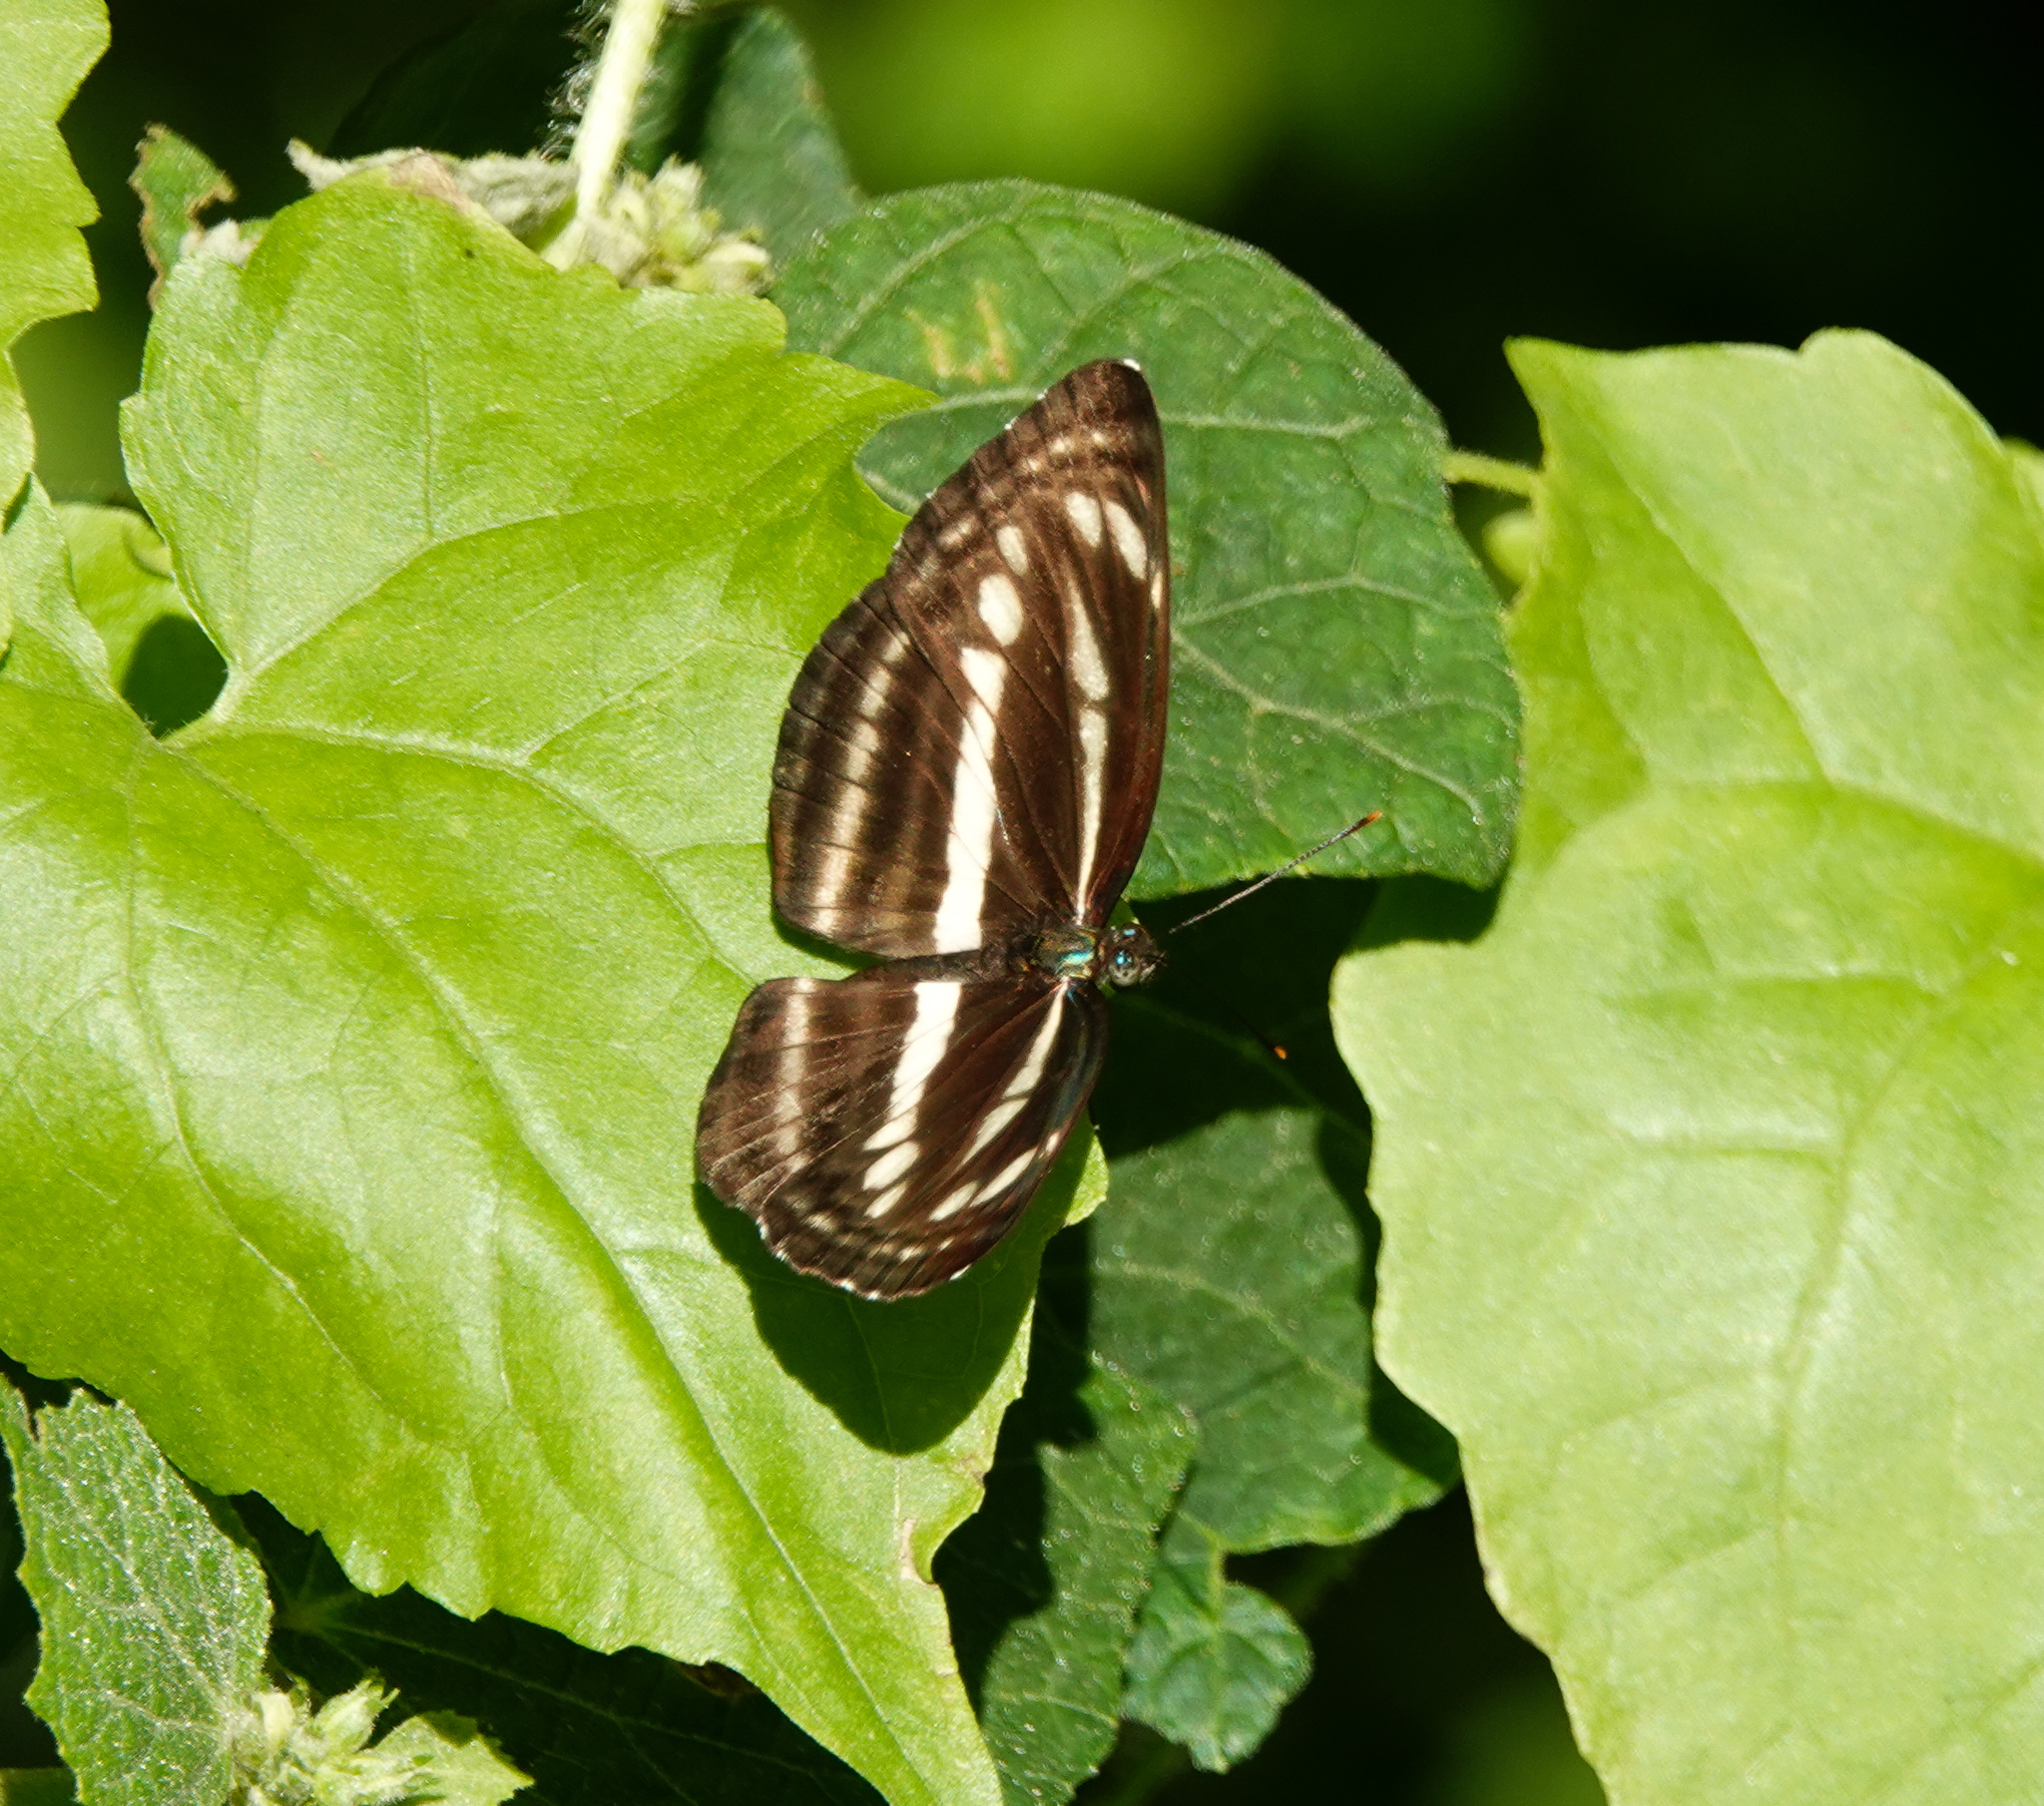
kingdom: Animalia
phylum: Arthropoda
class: Insecta
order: Lepidoptera
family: Nymphalidae
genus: Neptis
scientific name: Neptis clinia
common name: Southern sullied sailer
